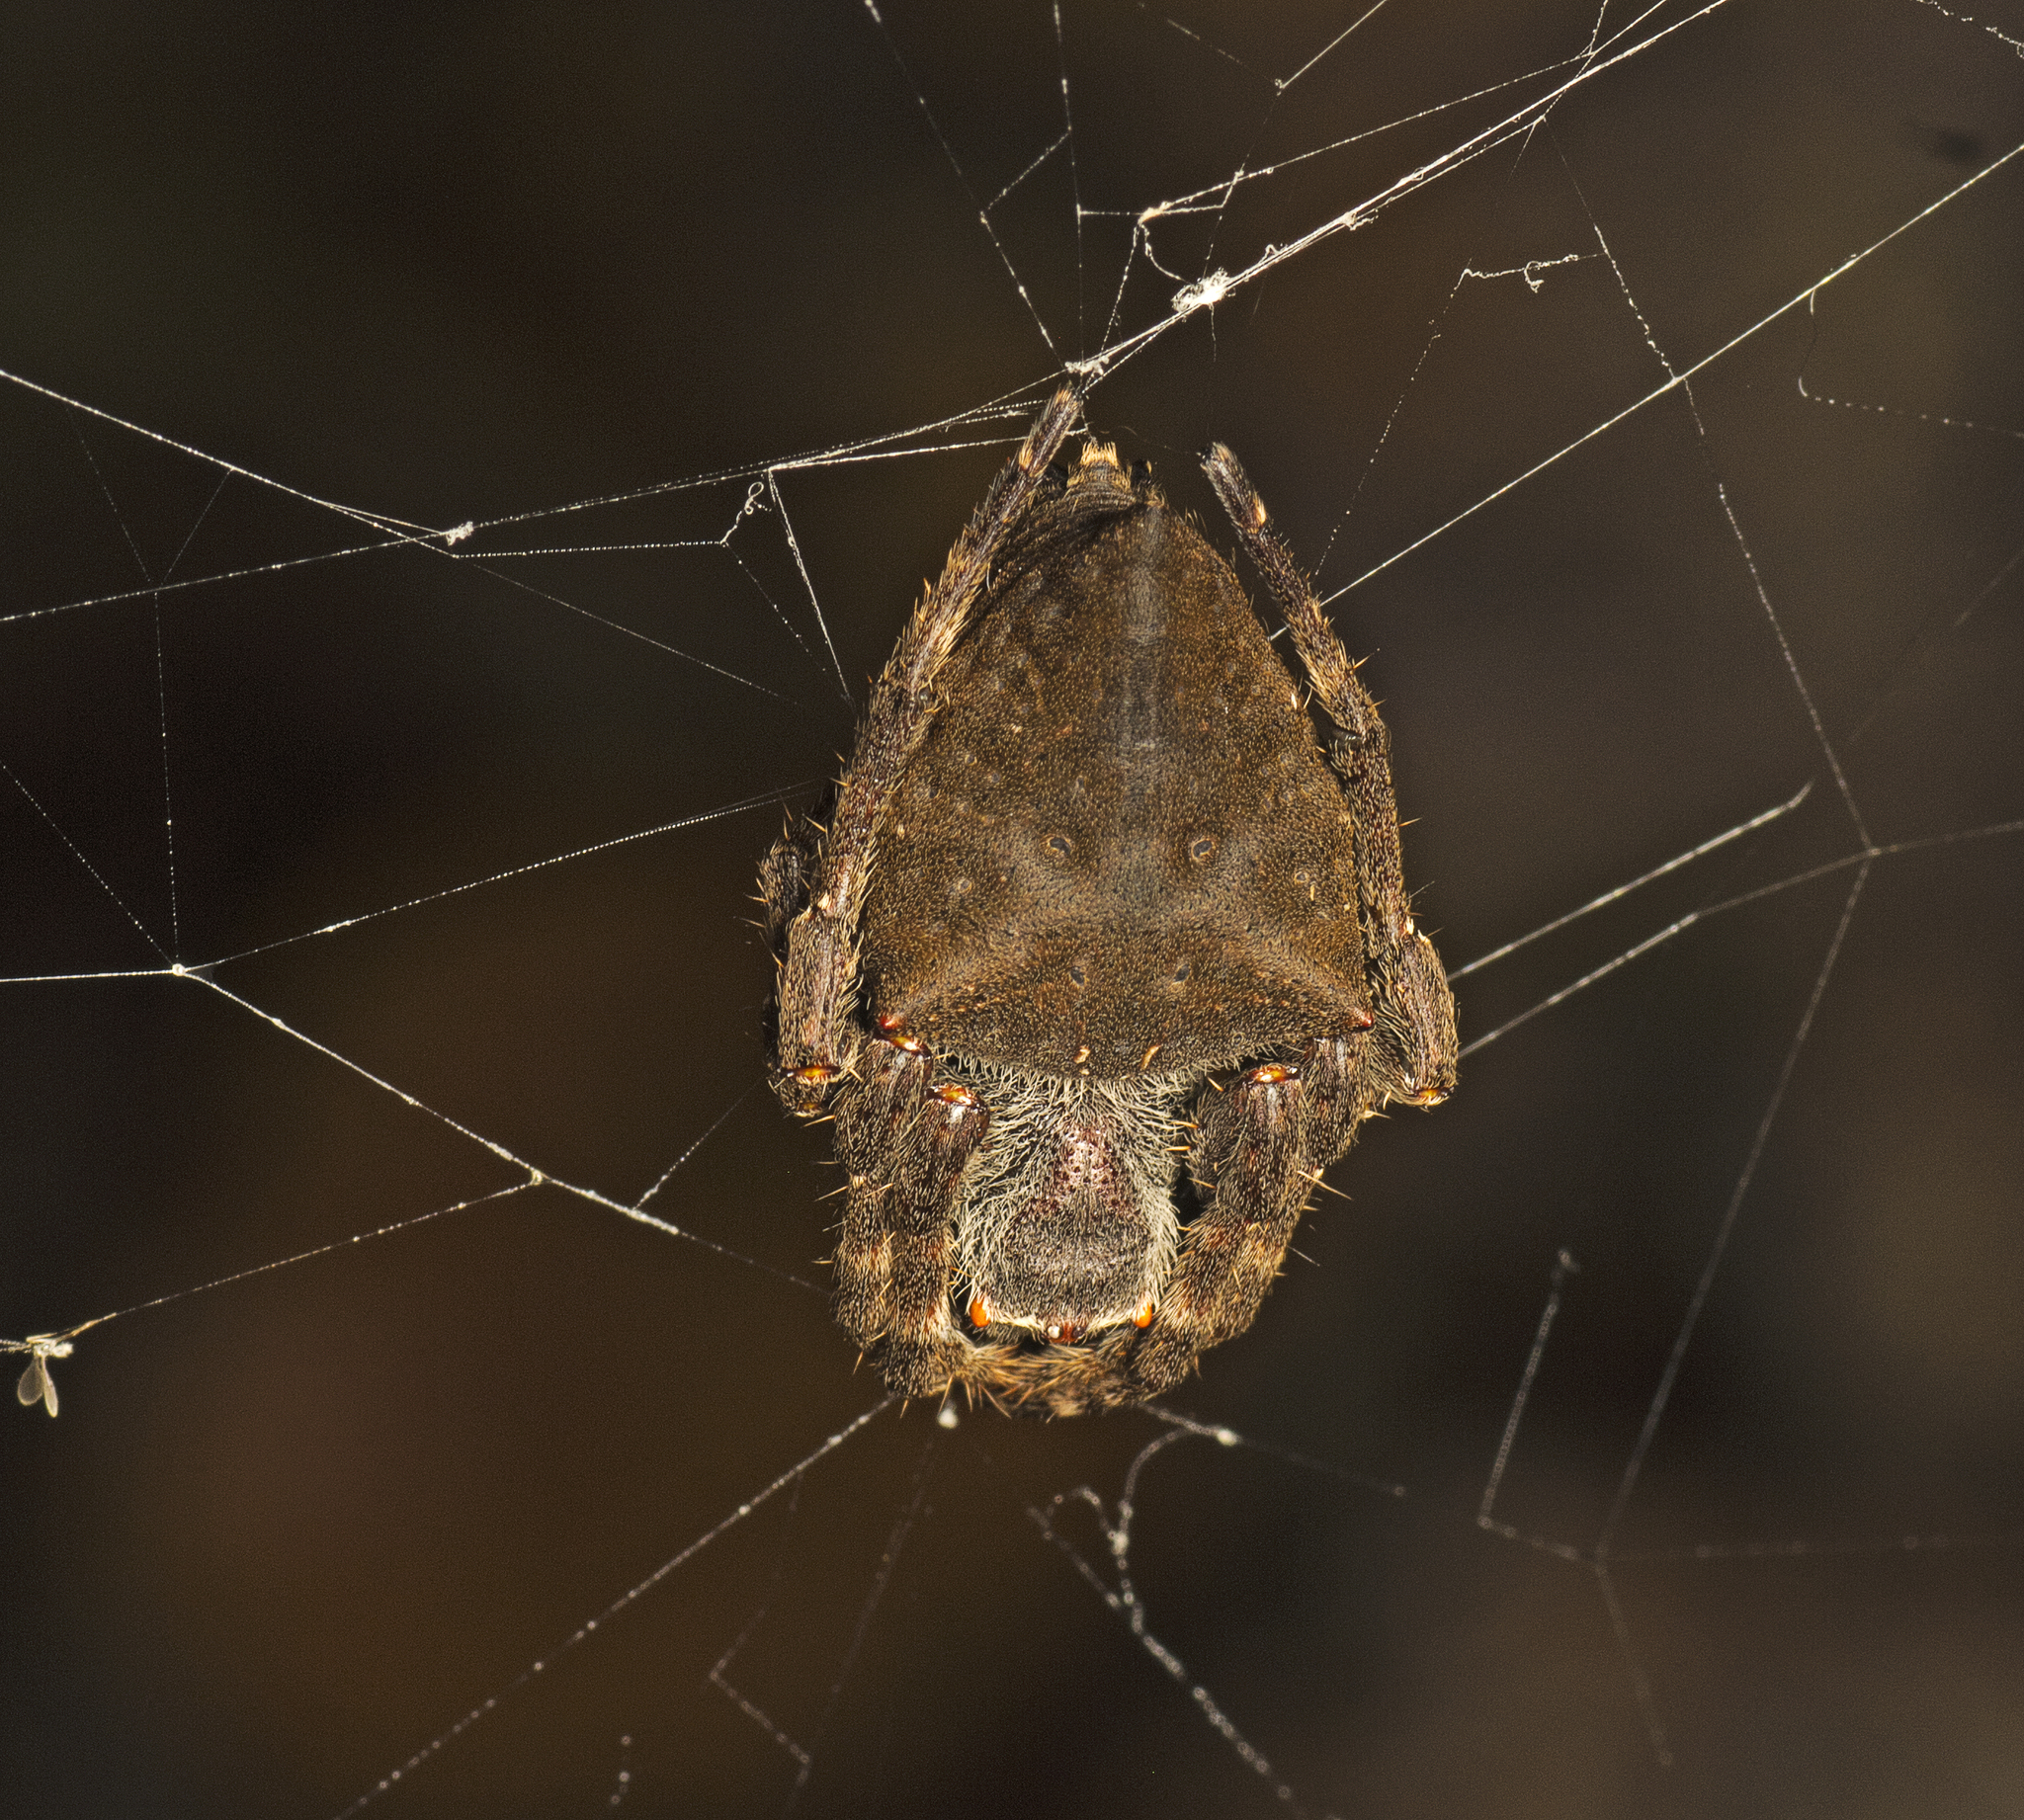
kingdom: Animalia
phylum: Arthropoda
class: Arachnida
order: Araneae
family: Araneidae
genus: Parawixia
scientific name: Parawixia dehaani
